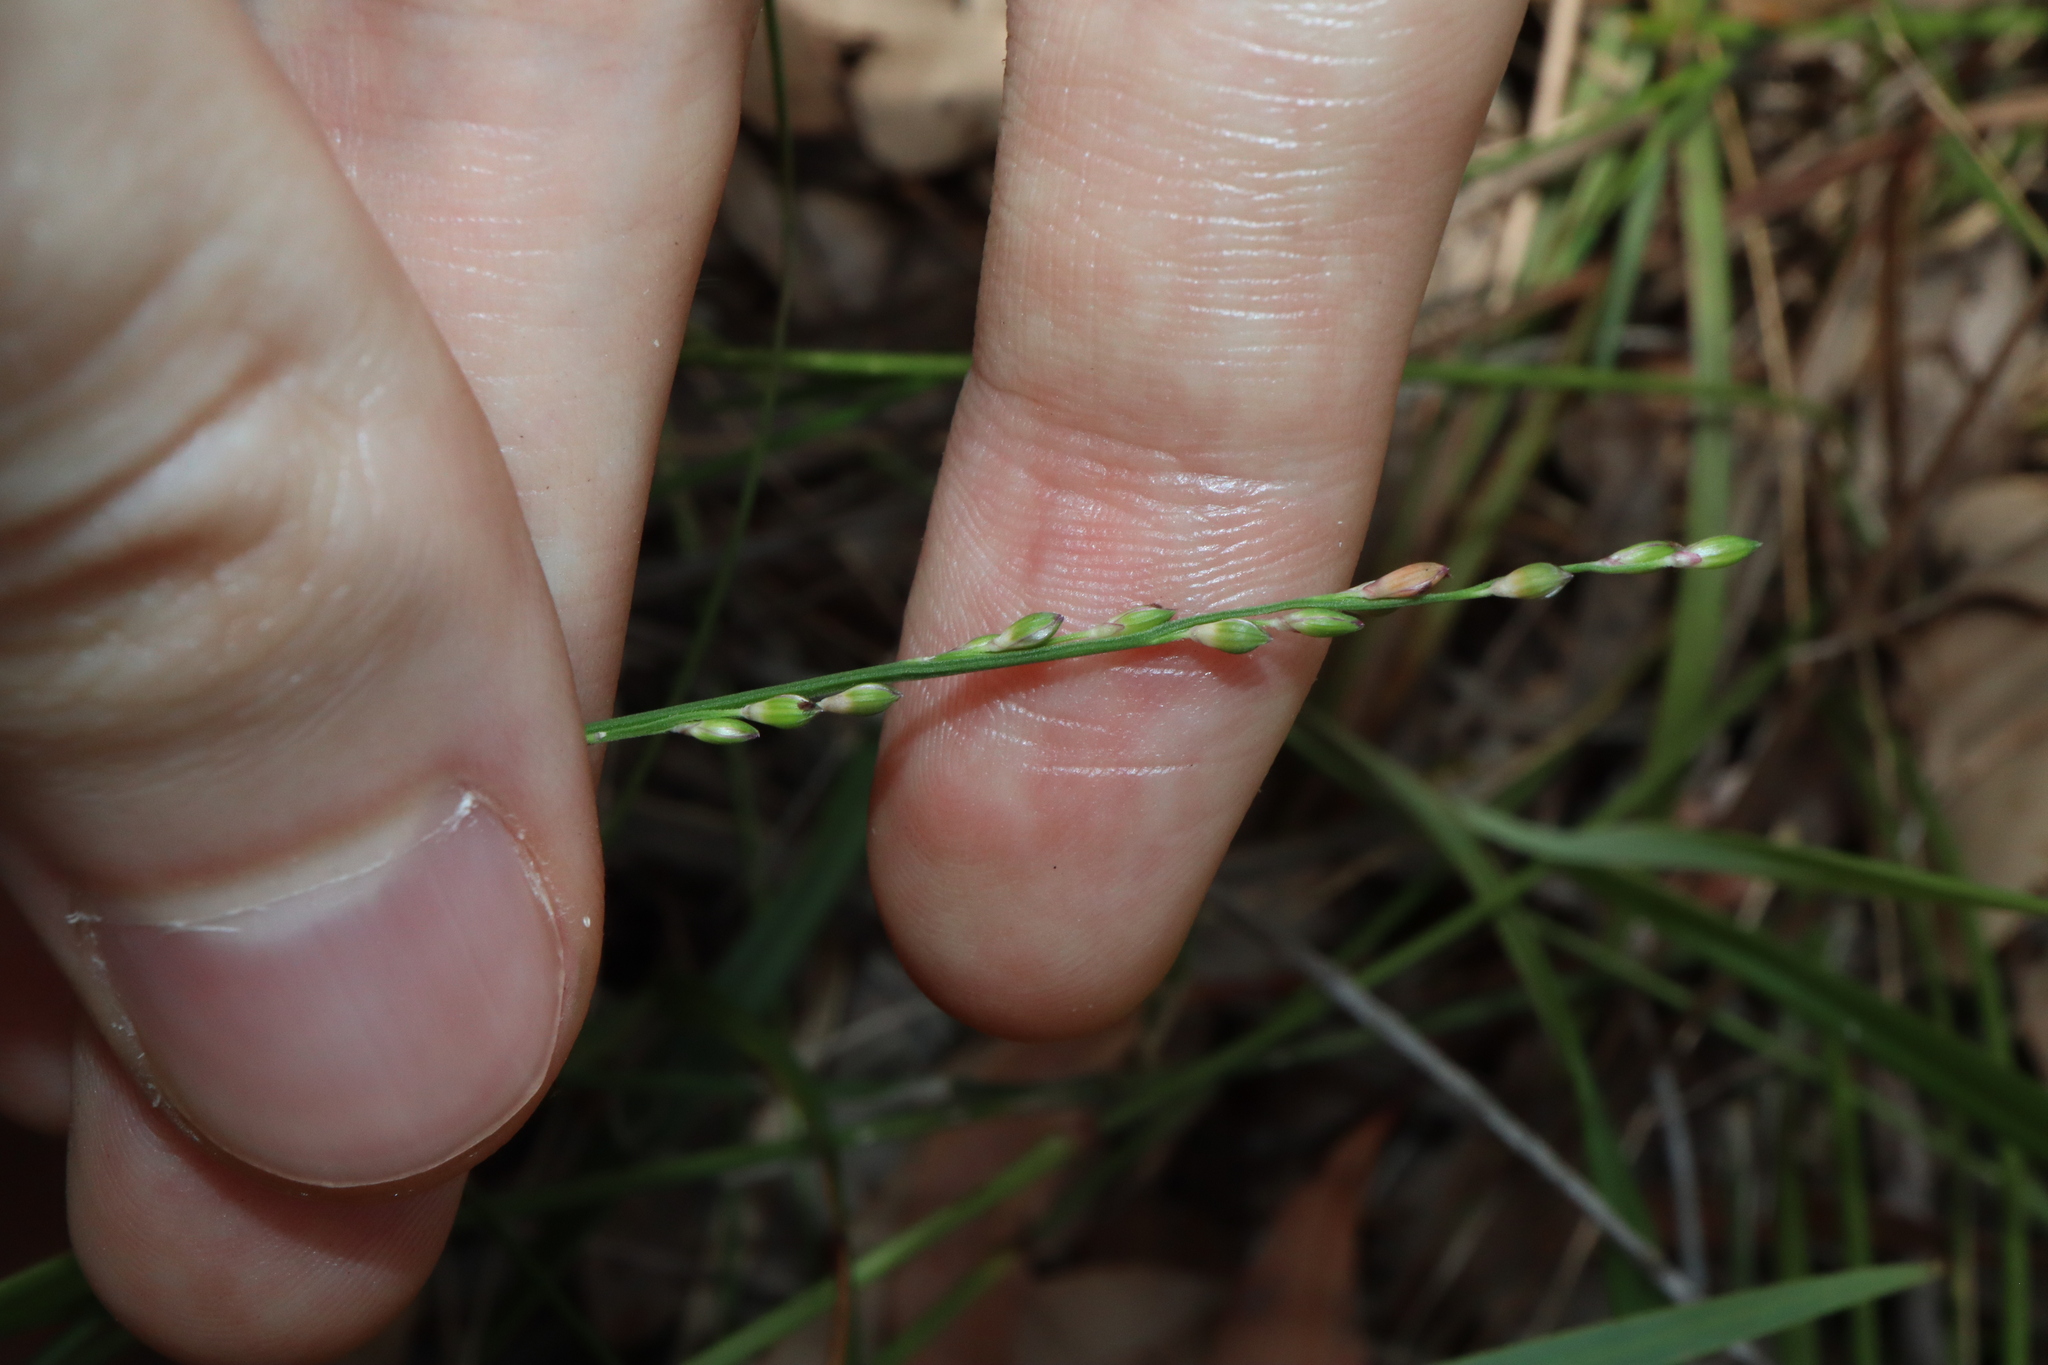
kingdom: Plantae
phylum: Tracheophyta
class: Liliopsida
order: Poales
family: Poaceae
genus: Entolasia
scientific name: Entolasia stricta
